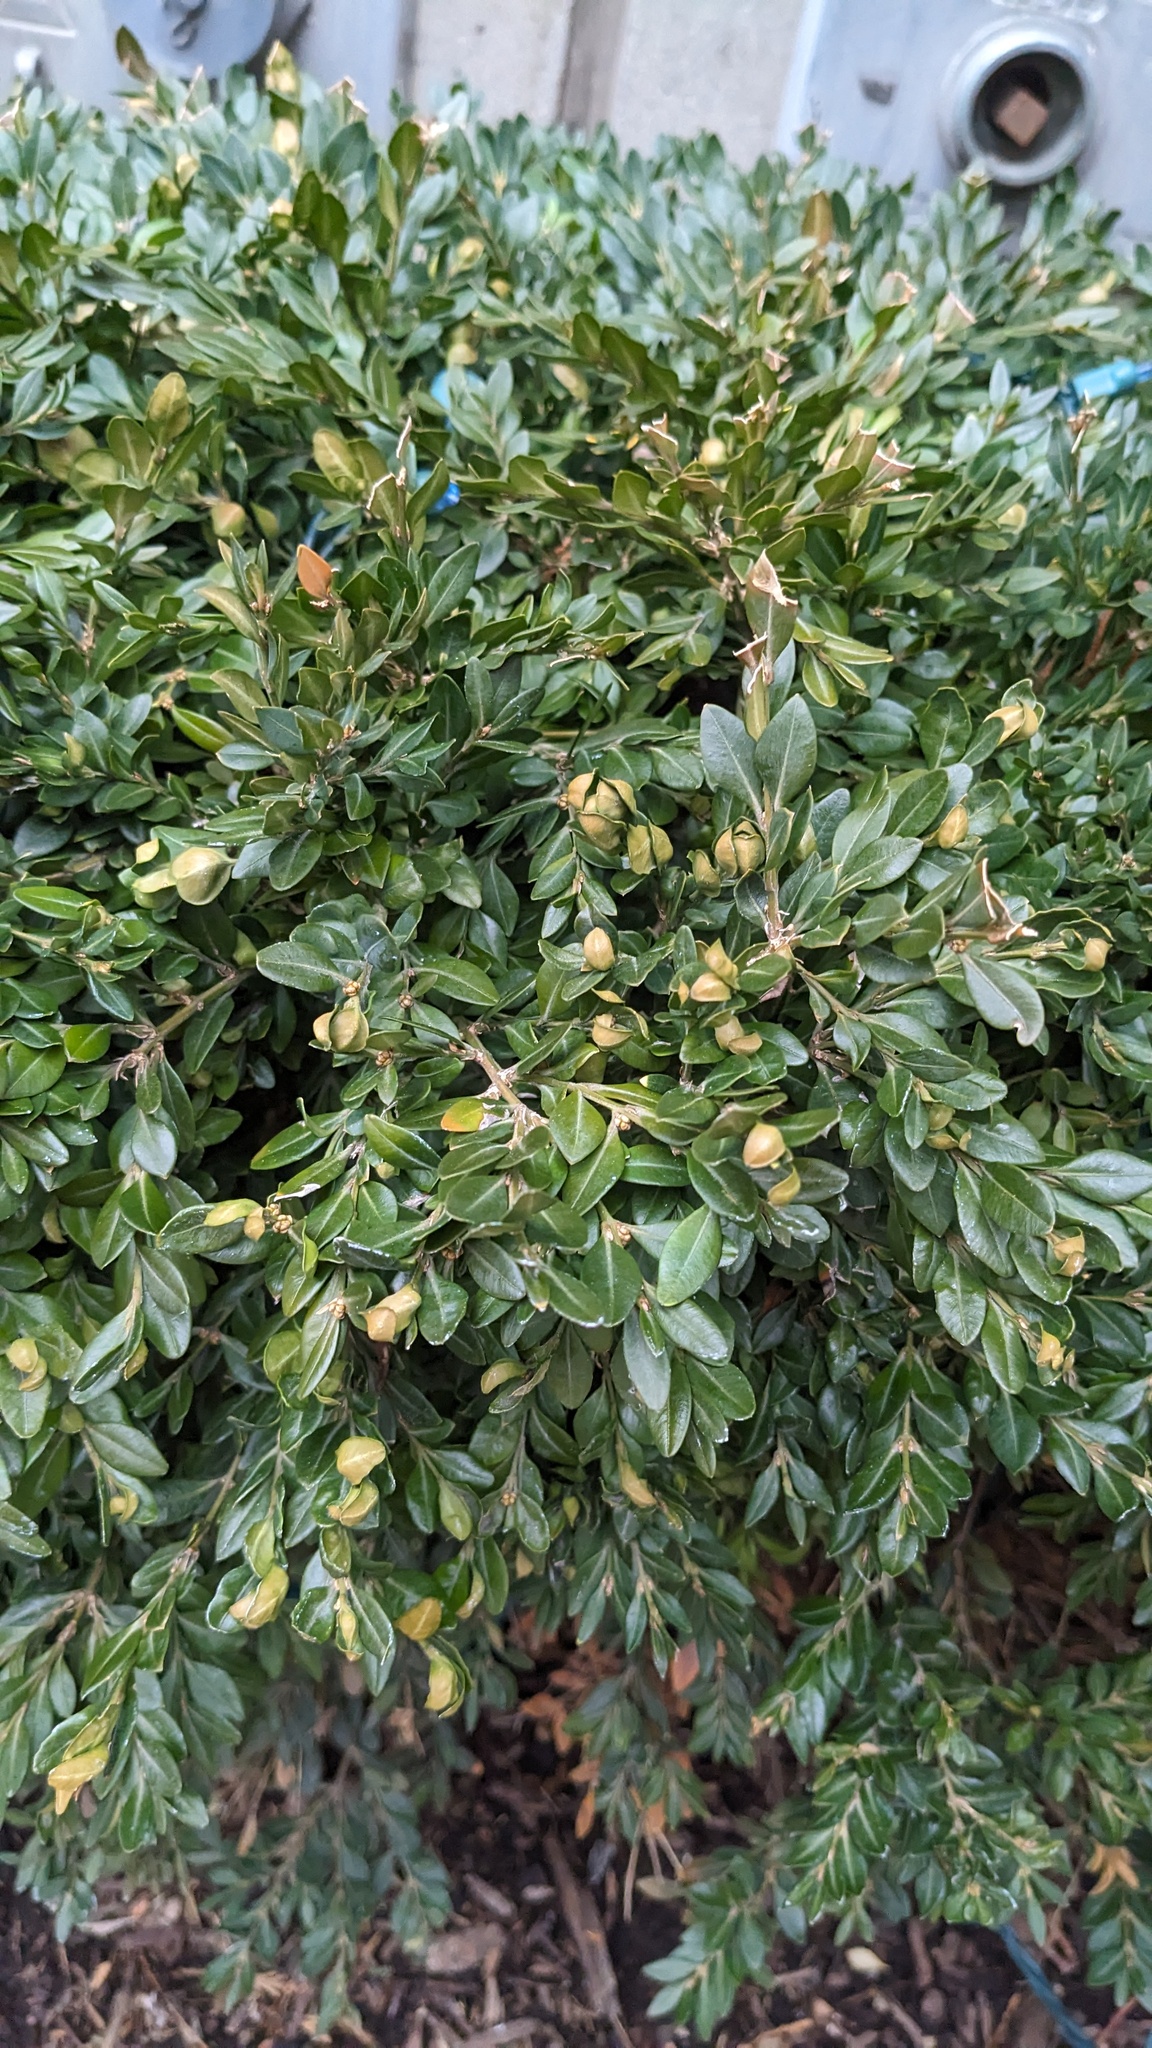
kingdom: Animalia
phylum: Arthropoda
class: Insecta
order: Hemiptera
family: Psyllidae
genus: Psylla
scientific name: Psylla buxi
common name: Boxwood psyllid
